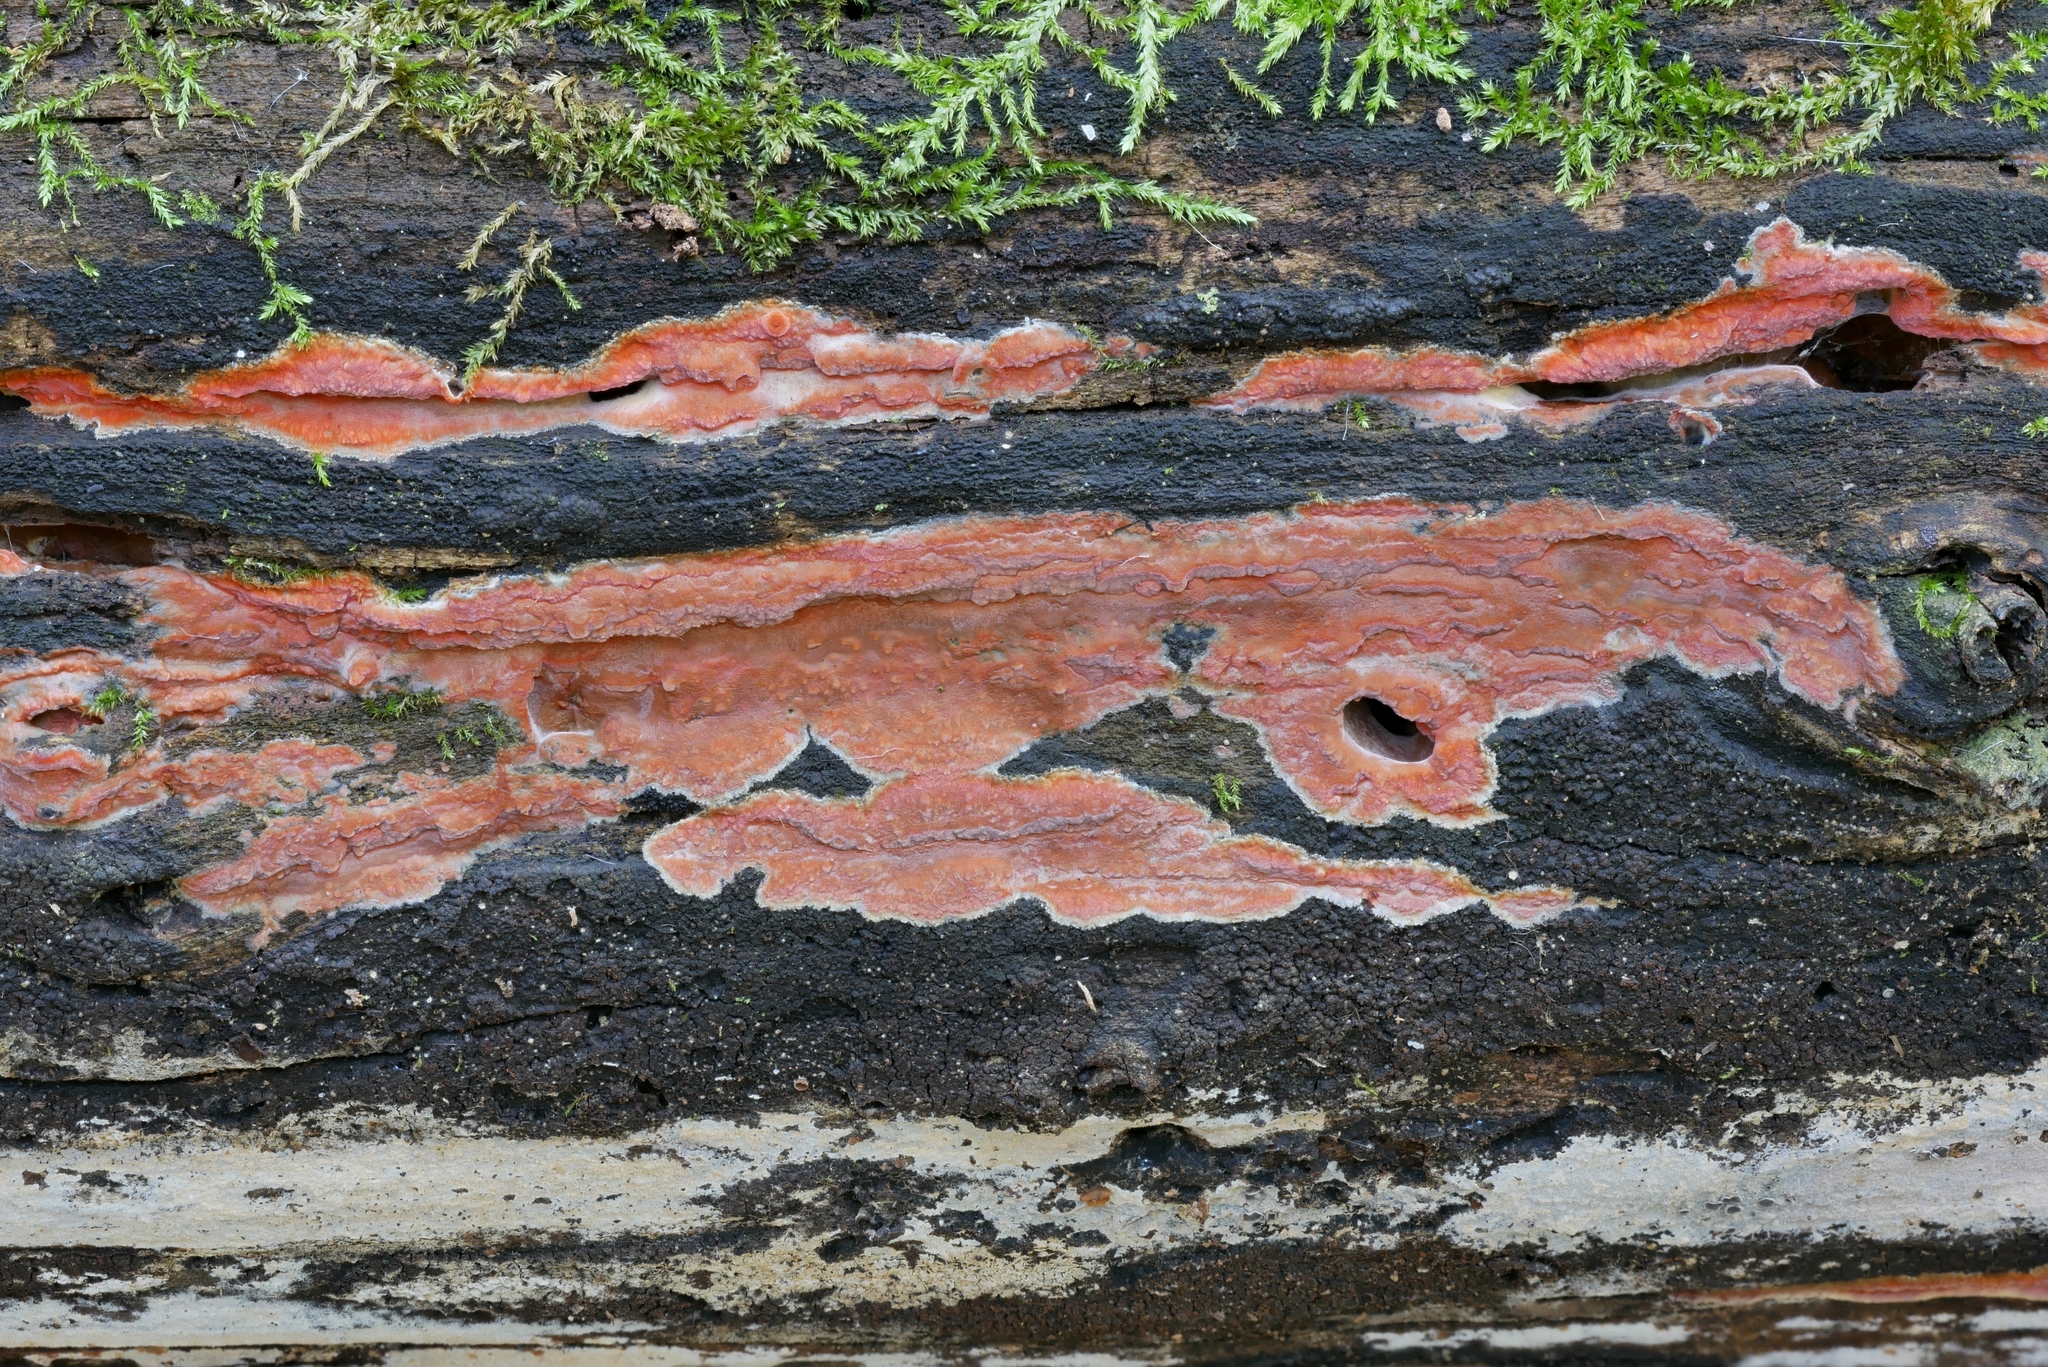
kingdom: Fungi
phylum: Basidiomycota
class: Agaricomycetes
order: Polyporales
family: Meruliaceae
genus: Phlebia
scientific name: Phlebia coccineofulva
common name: Scarlet waxcrust
